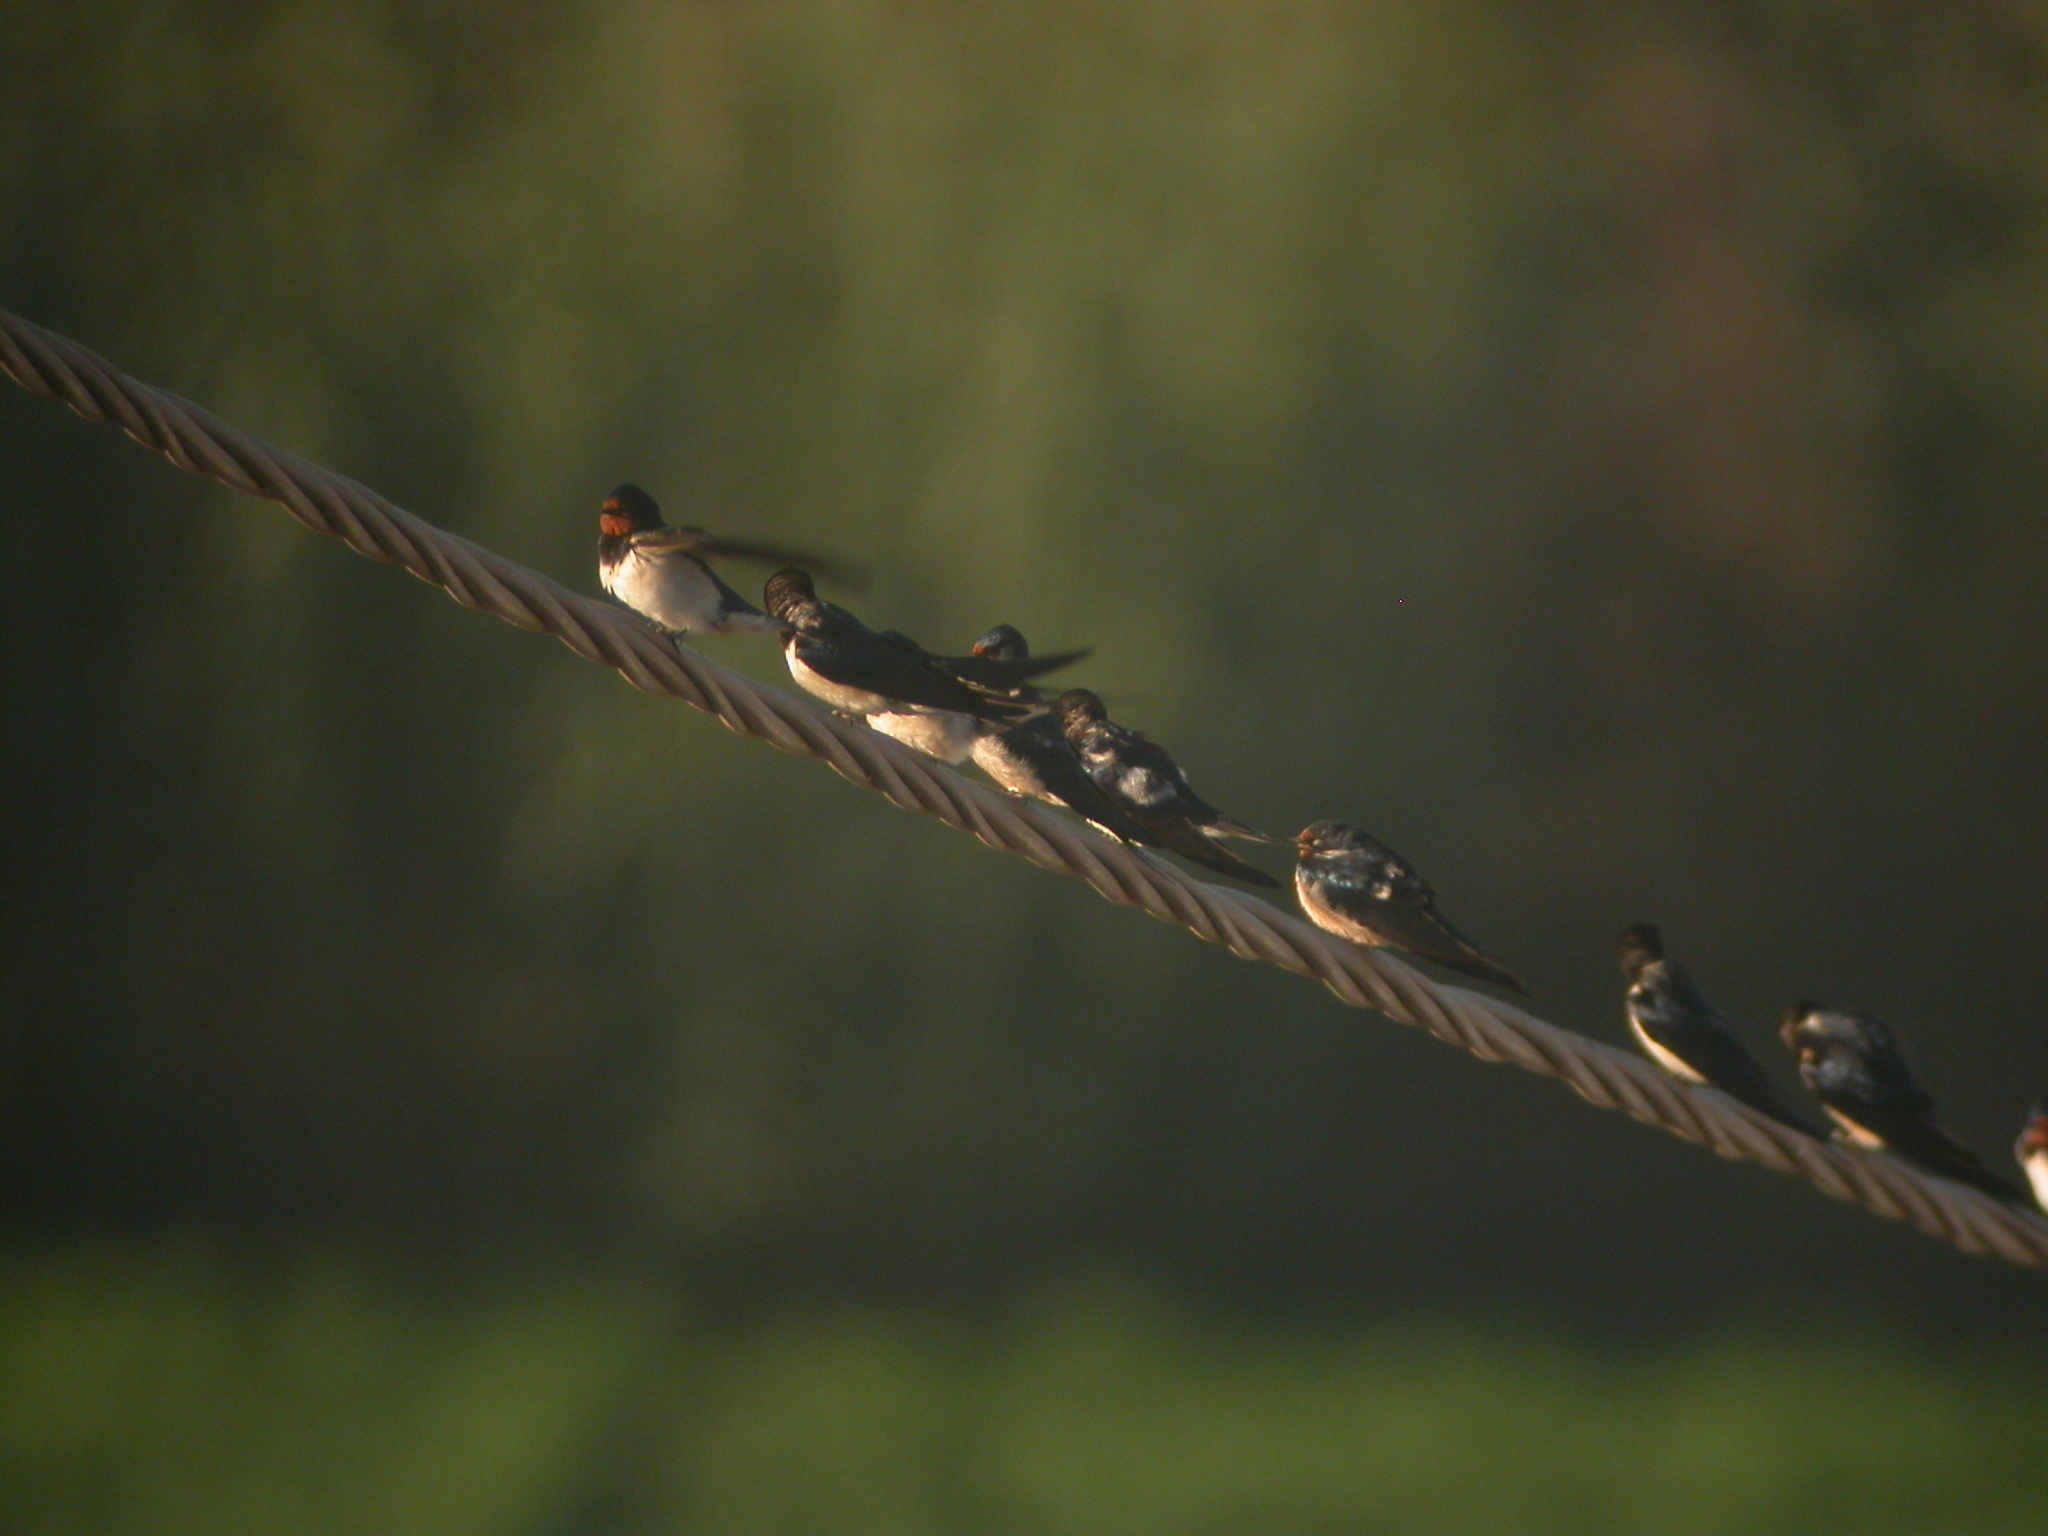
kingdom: Animalia
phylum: Chordata
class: Aves
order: Passeriformes
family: Hirundinidae
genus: Hirundo
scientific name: Hirundo rustica
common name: Barn swallow
